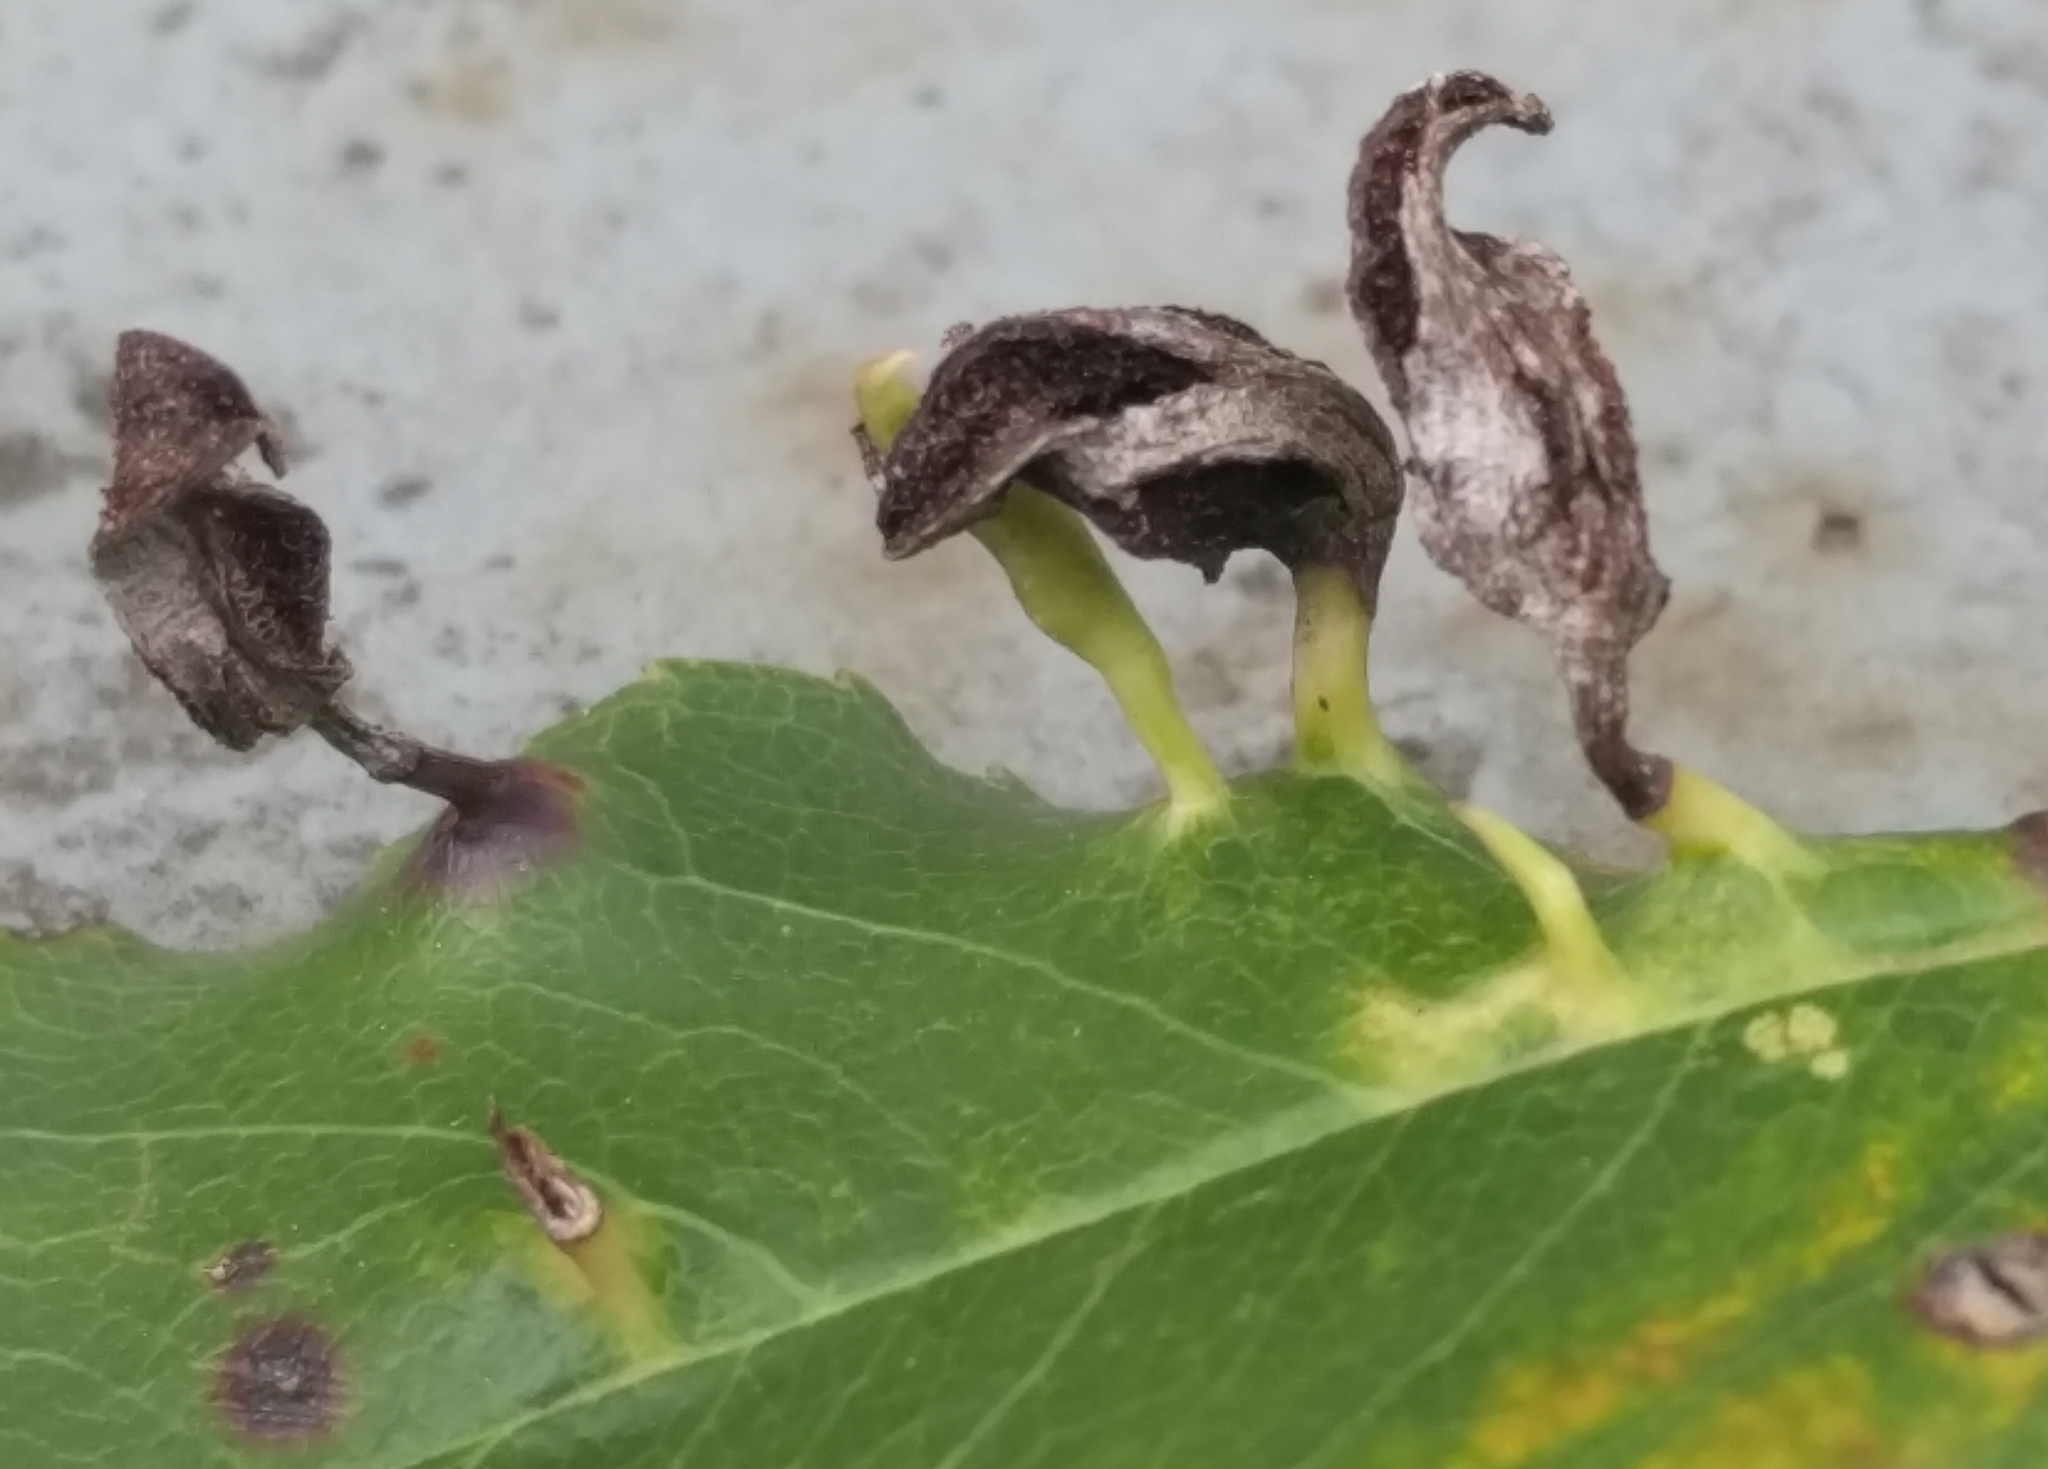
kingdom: Animalia
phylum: Arthropoda
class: Arachnida
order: Trombidiformes
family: Eriophyidae
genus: Eriophyes
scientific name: Eriophyes
